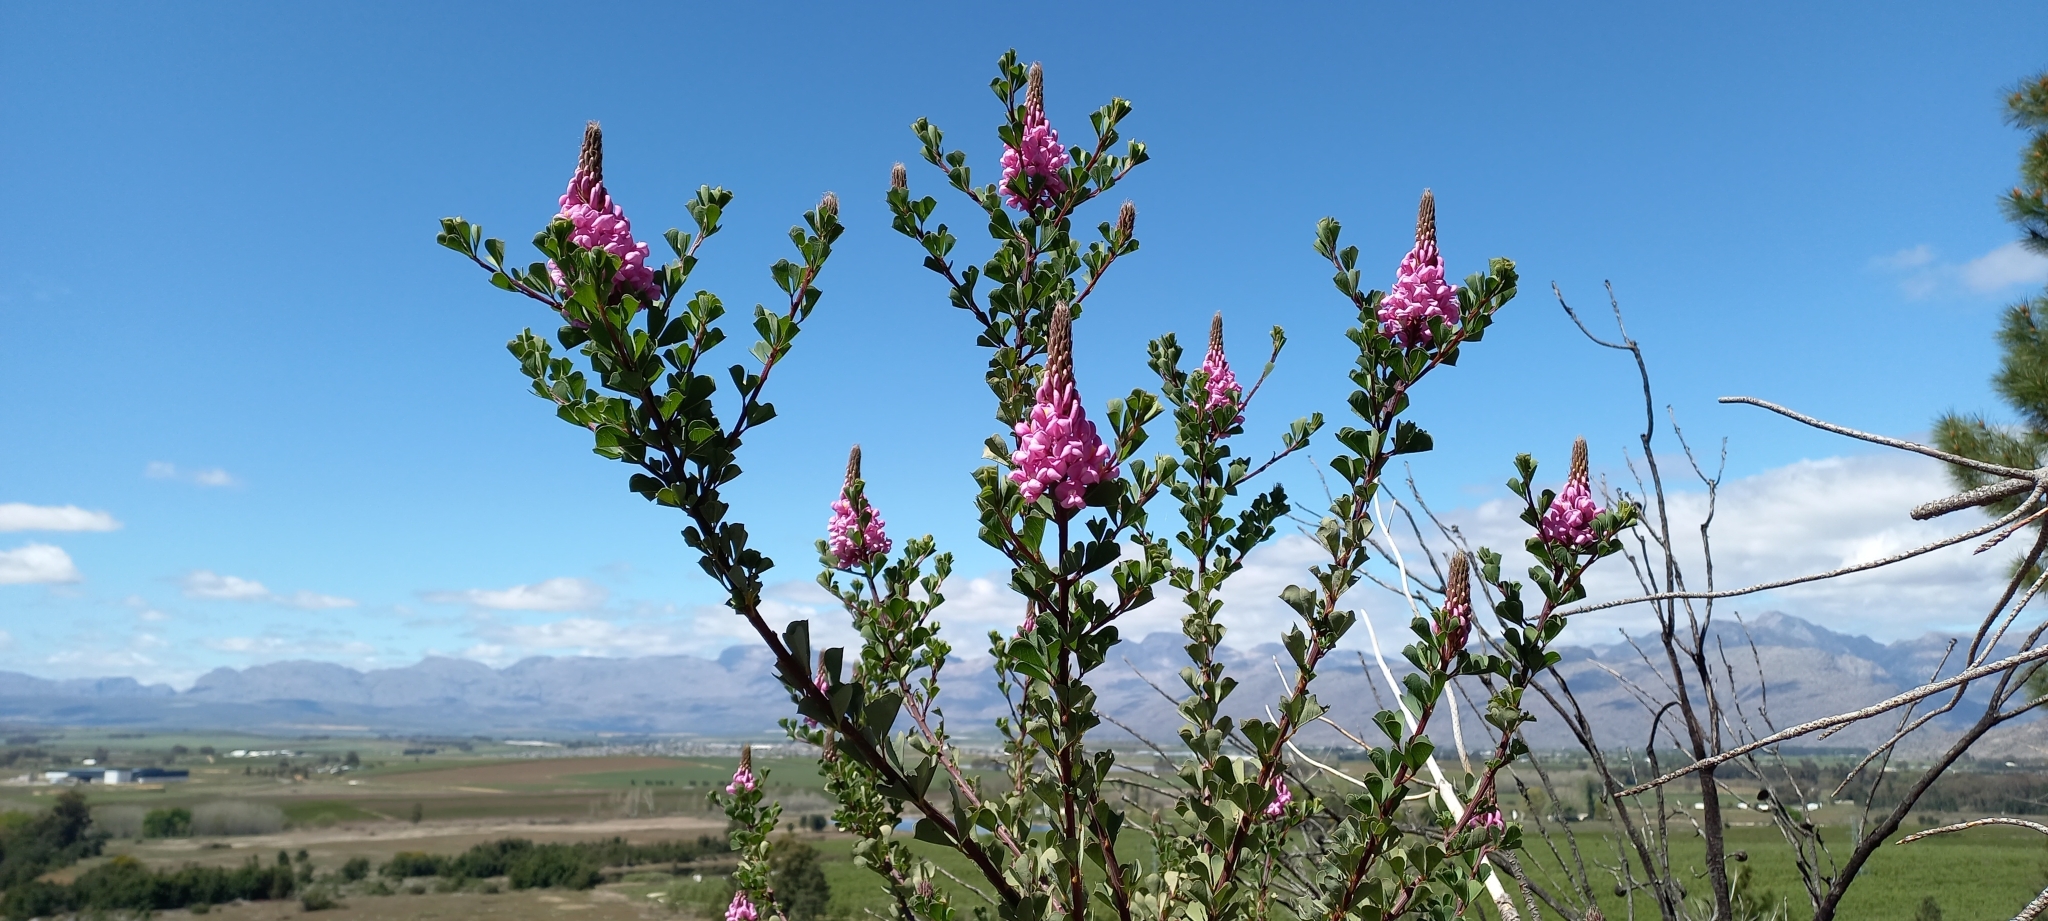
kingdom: Plantae
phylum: Tracheophyta
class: Magnoliopsida
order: Fabales
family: Fabaceae
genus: Hypocalyptus
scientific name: Hypocalyptus sophoroides
